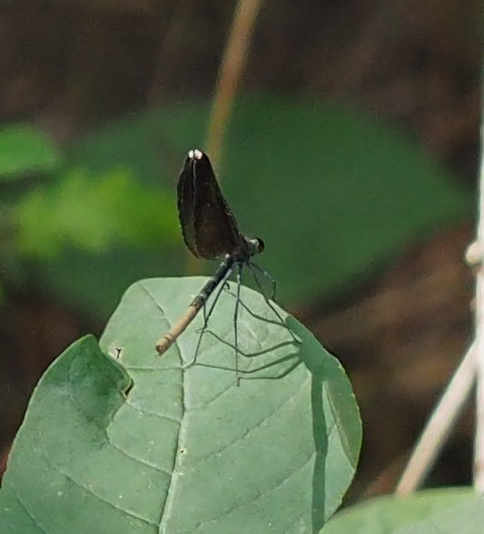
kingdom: Animalia
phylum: Arthropoda
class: Insecta
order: Odonata
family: Calopterygidae
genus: Calopteryx
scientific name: Calopteryx maculata
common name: Ebony jewelwing
